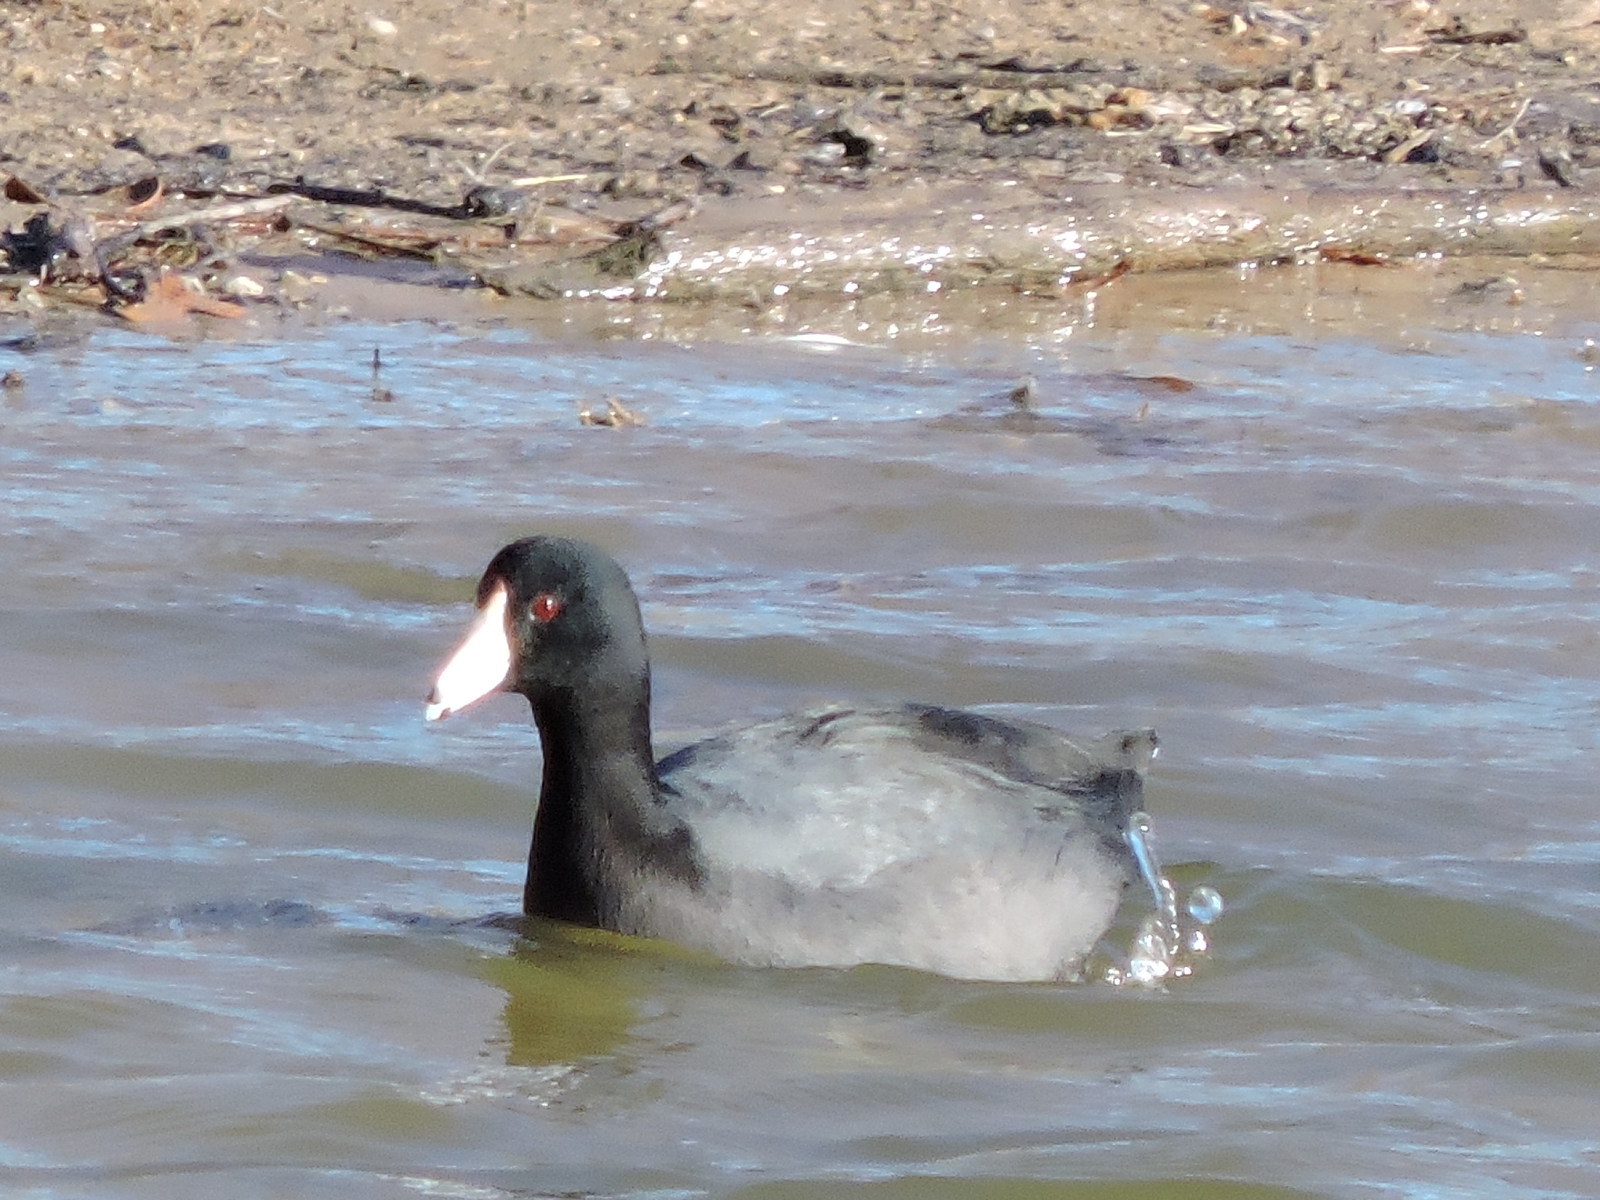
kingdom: Animalia
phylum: Chordata
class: Aves
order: Gruiformes
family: Rallidae
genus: Fulica
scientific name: Fulica americana
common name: American coot
